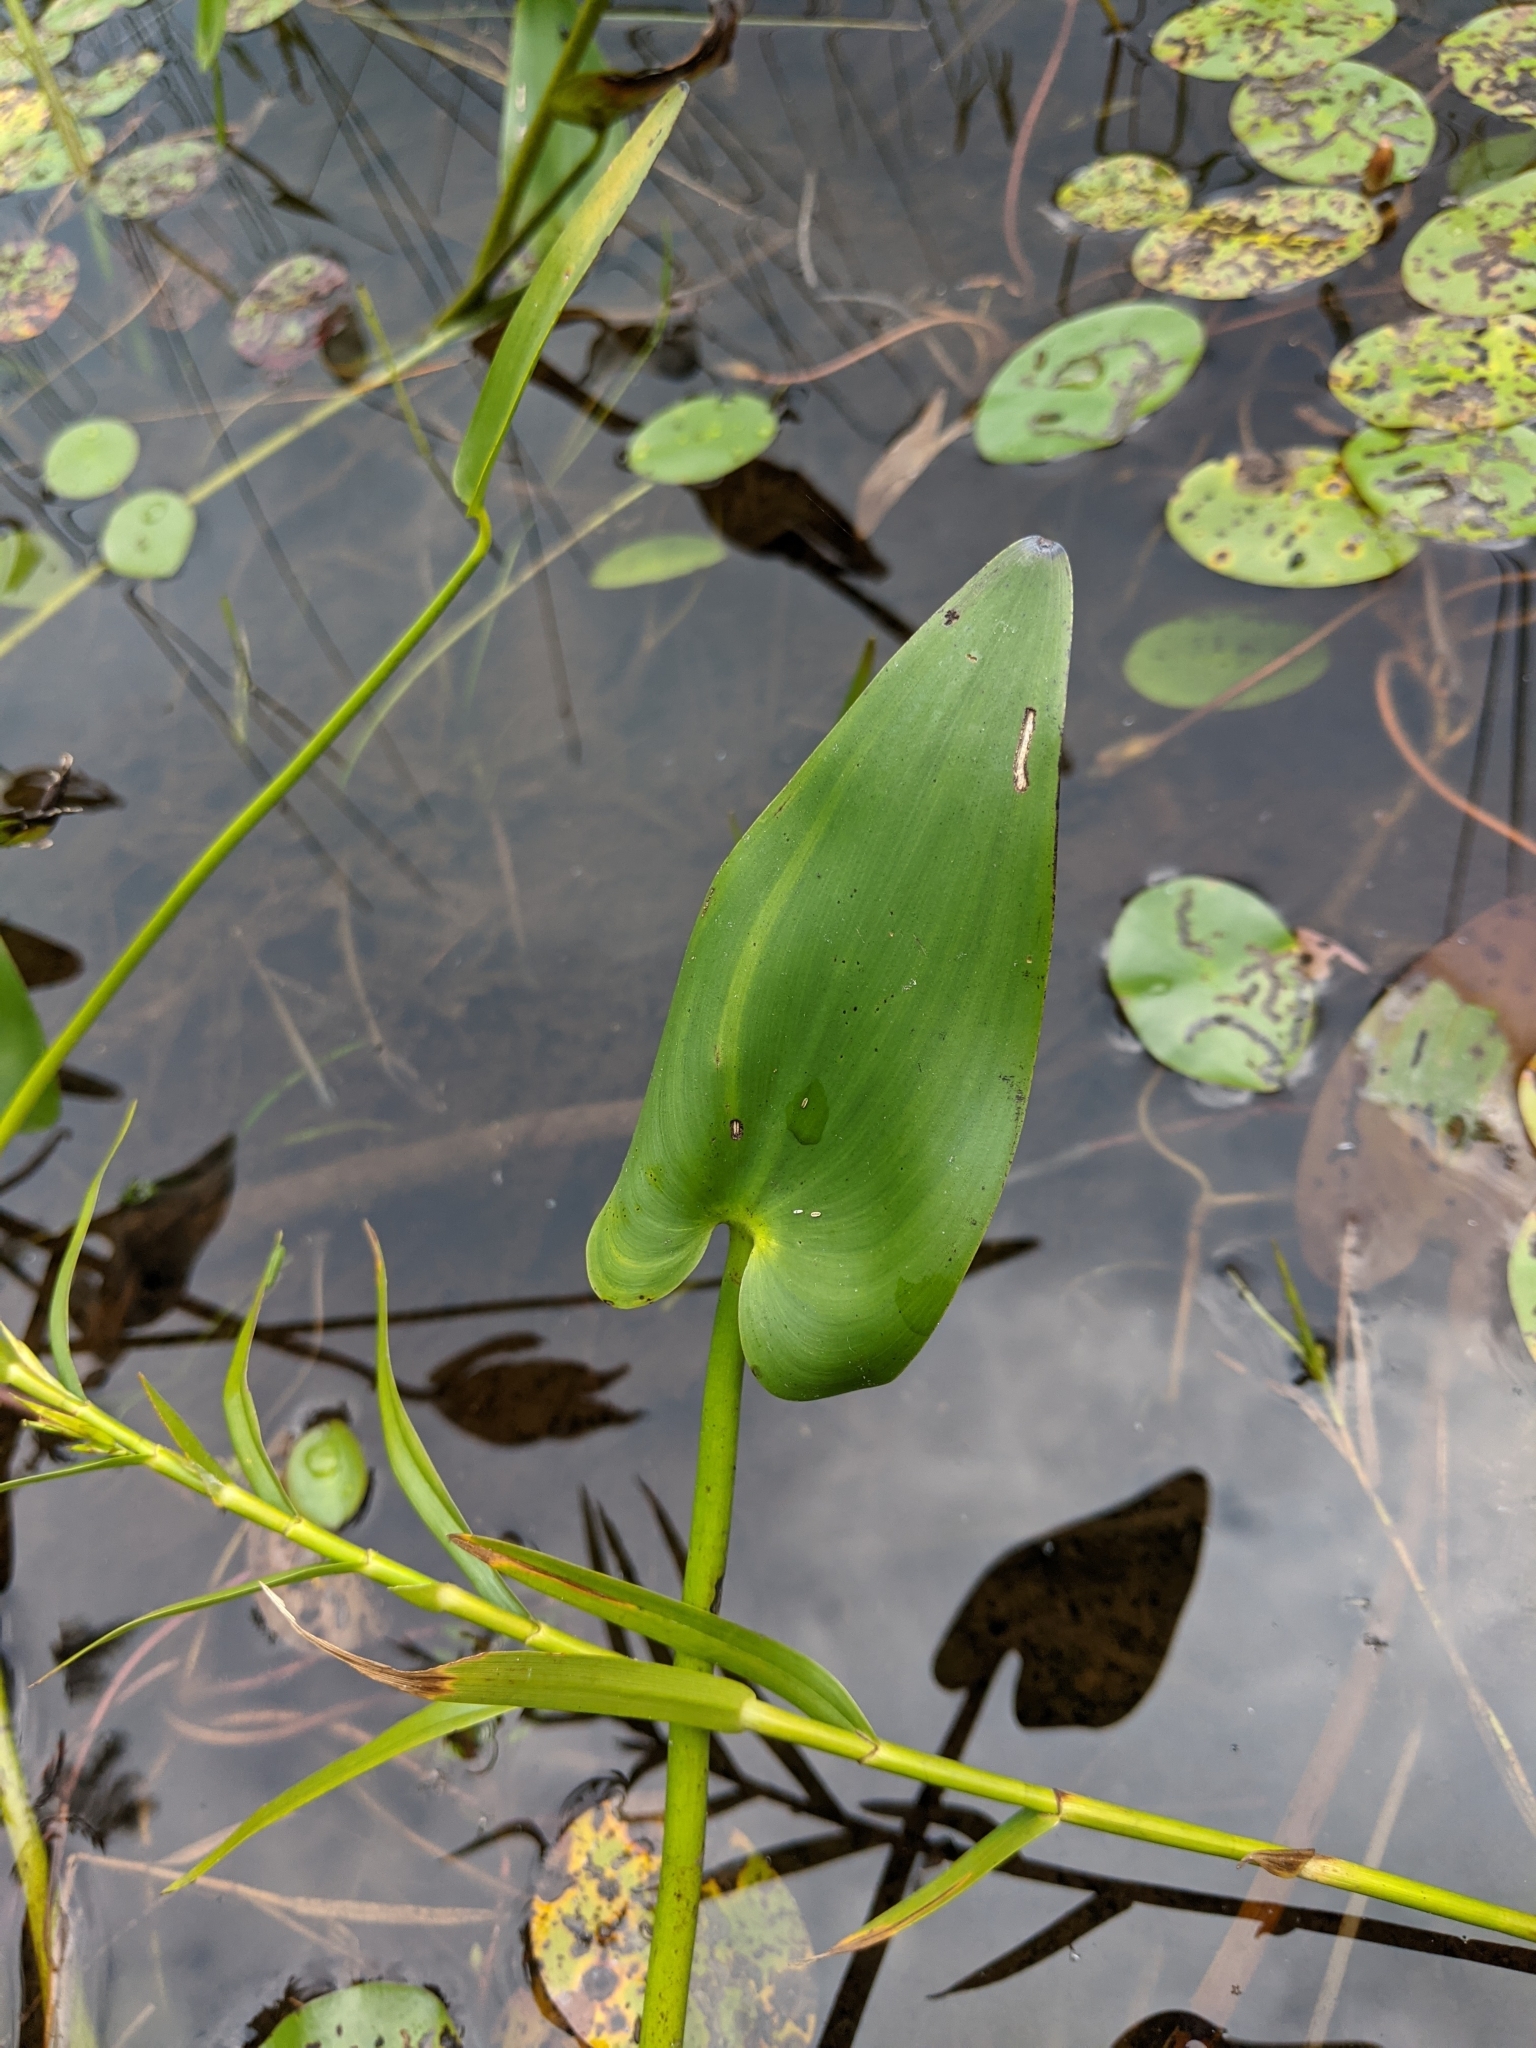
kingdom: Plantae
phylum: Tracheophyta
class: Liliopsida
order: Commelinales
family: Pontederiaceae
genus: Pontederia
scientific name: Pontederia cordata
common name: Pickerelweed
